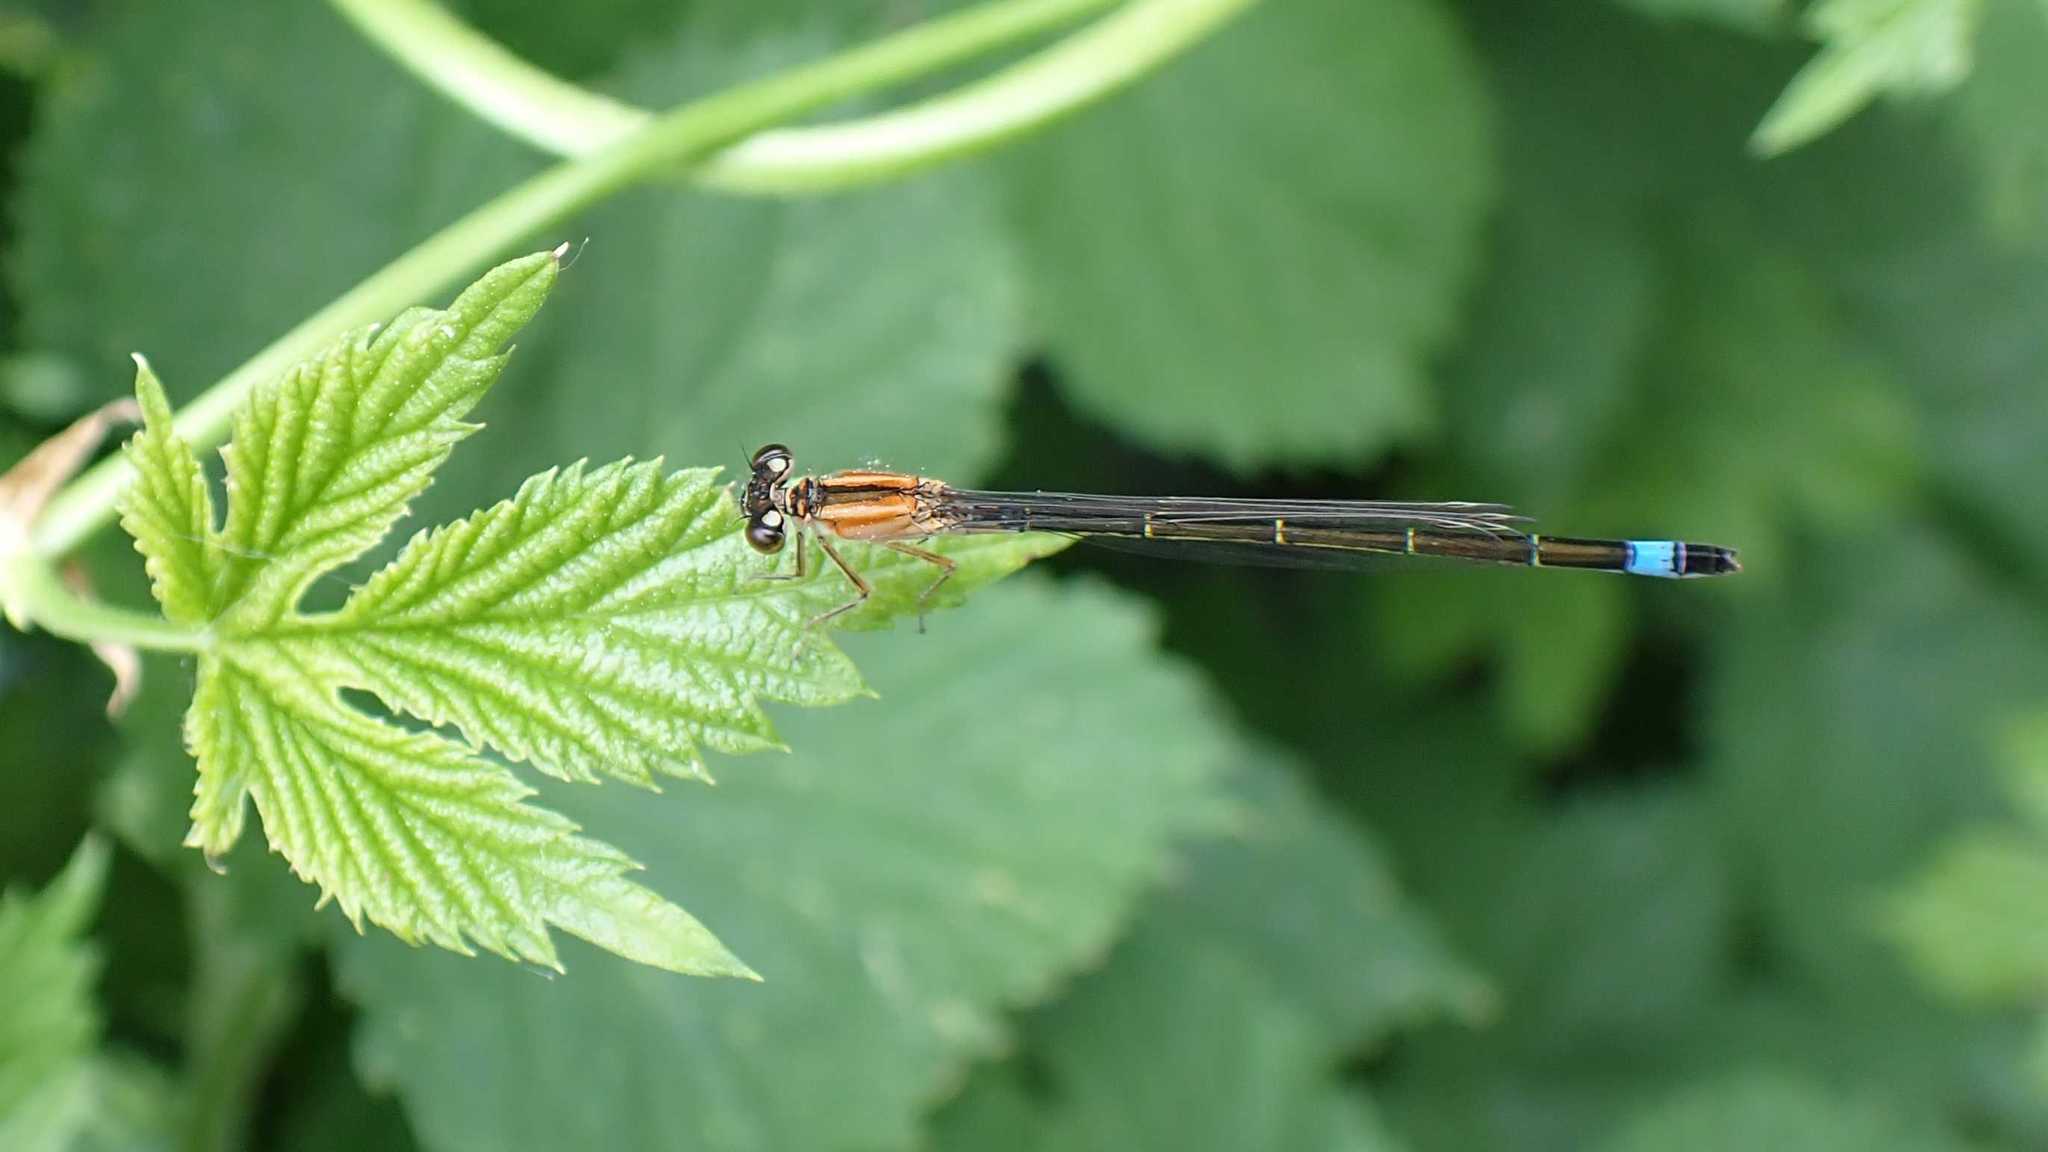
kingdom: Animalia
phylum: Arthropoda
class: Insecta
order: Odonata
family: Coenagrionidae
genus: Ischnura
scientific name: Ischnura elegans
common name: Blue-tailed damselfly
